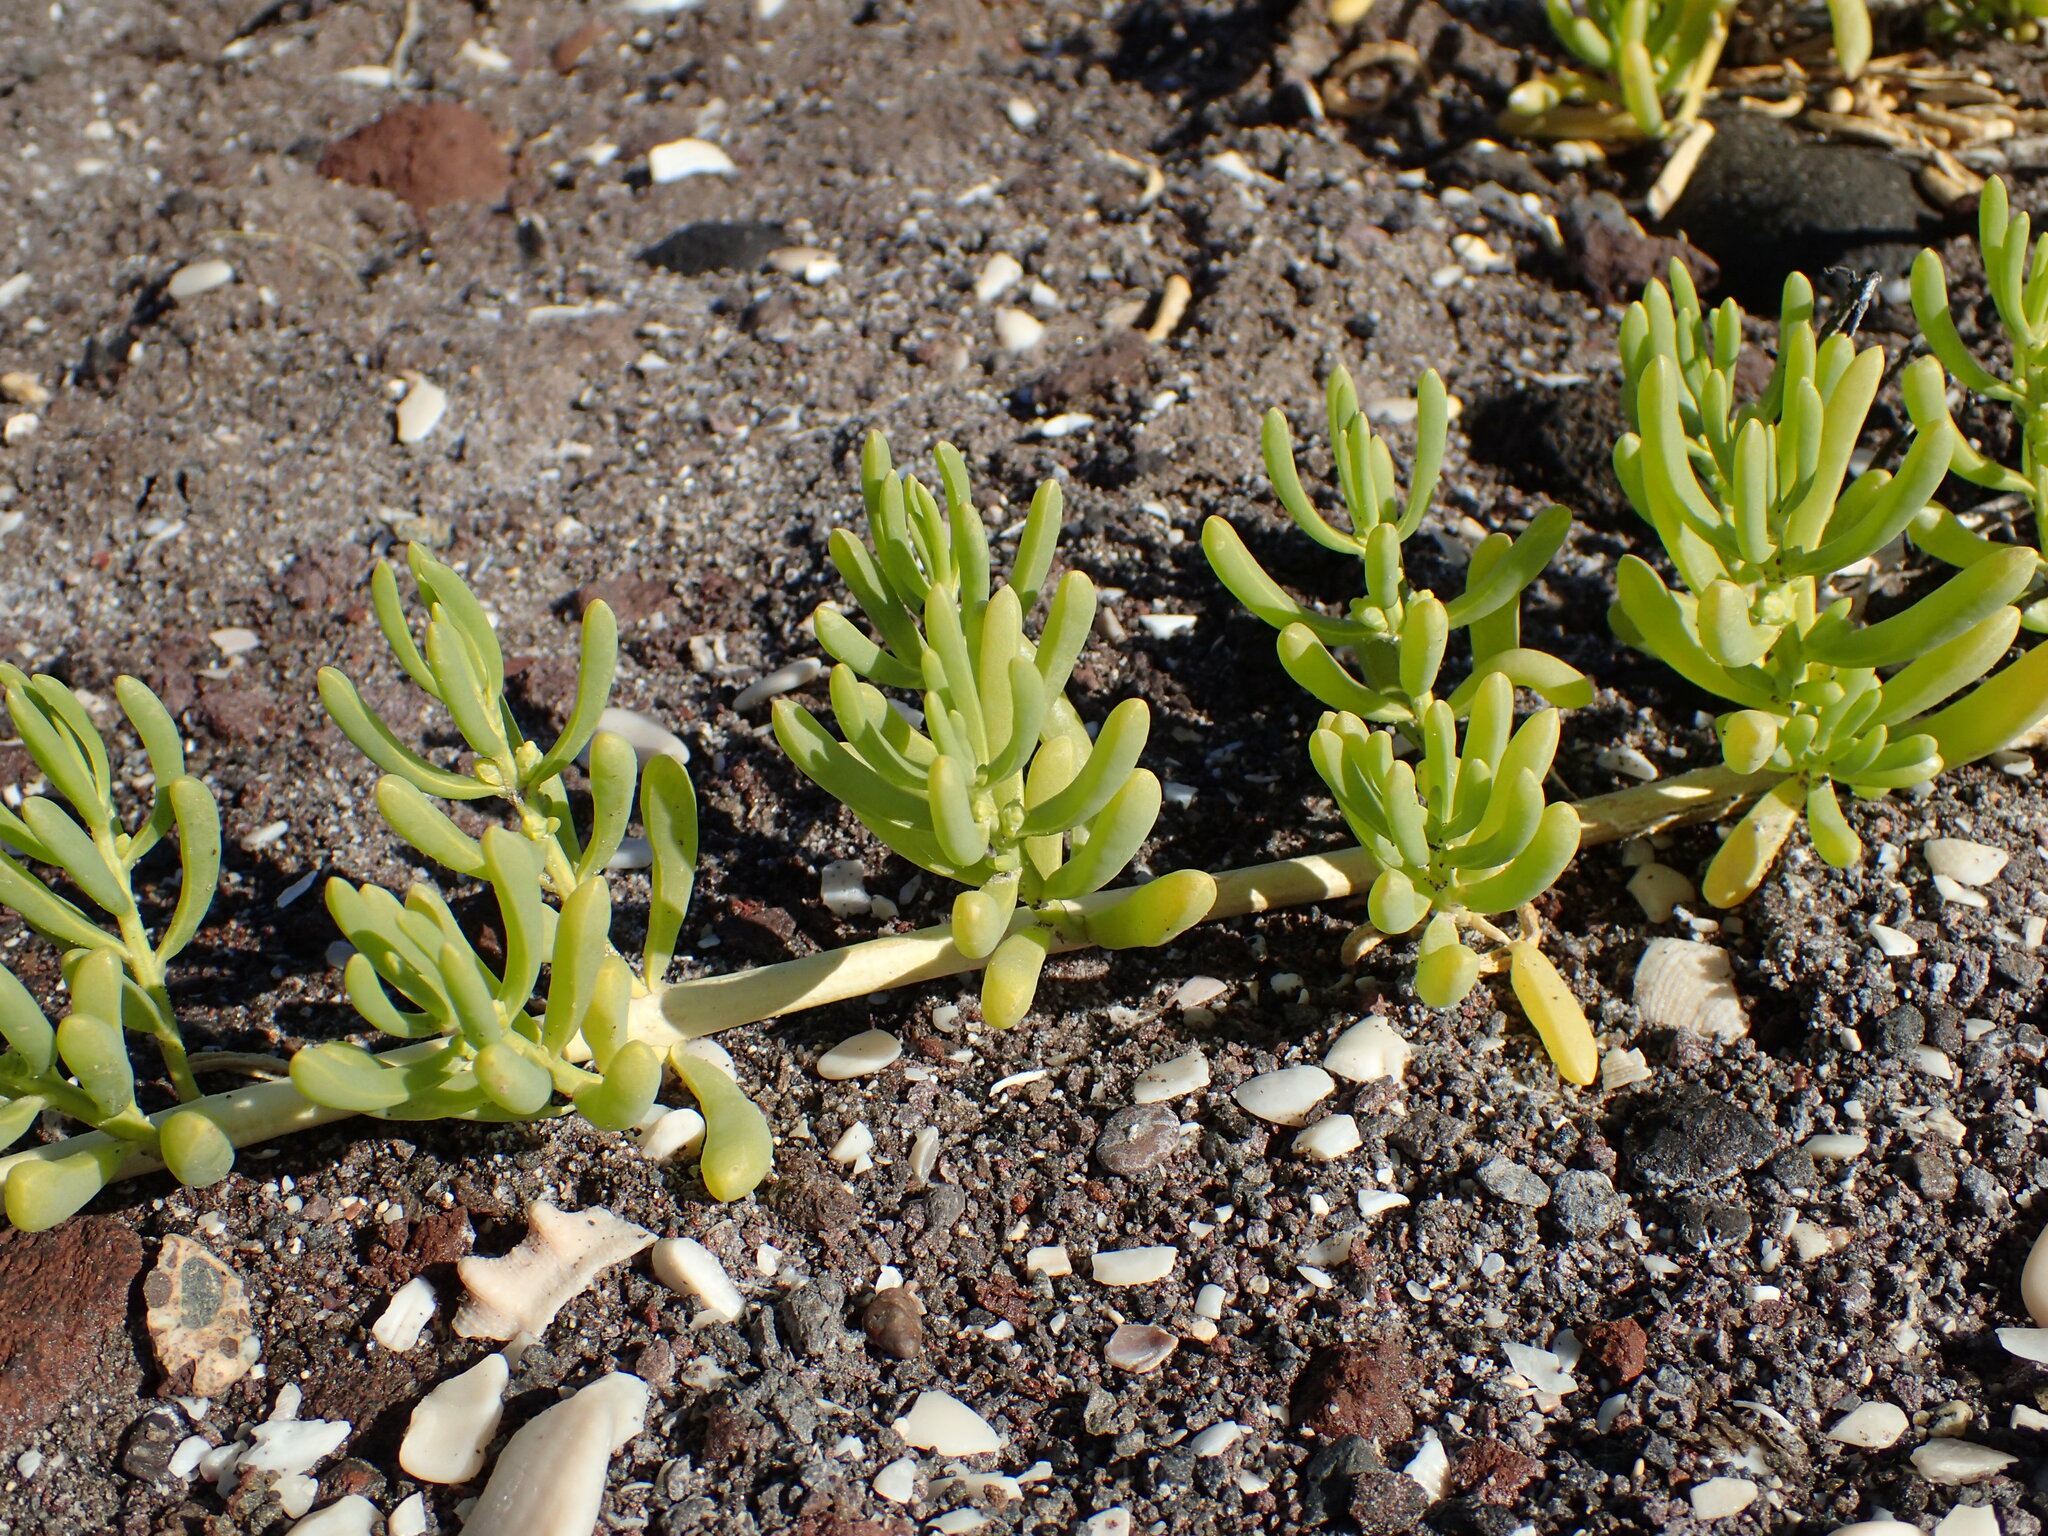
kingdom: Plantae
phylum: Tracheophyta
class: Magnoliopsida
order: Brassicales
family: Bataceae
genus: Batis
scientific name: Batis maritima
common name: Turtleweed
